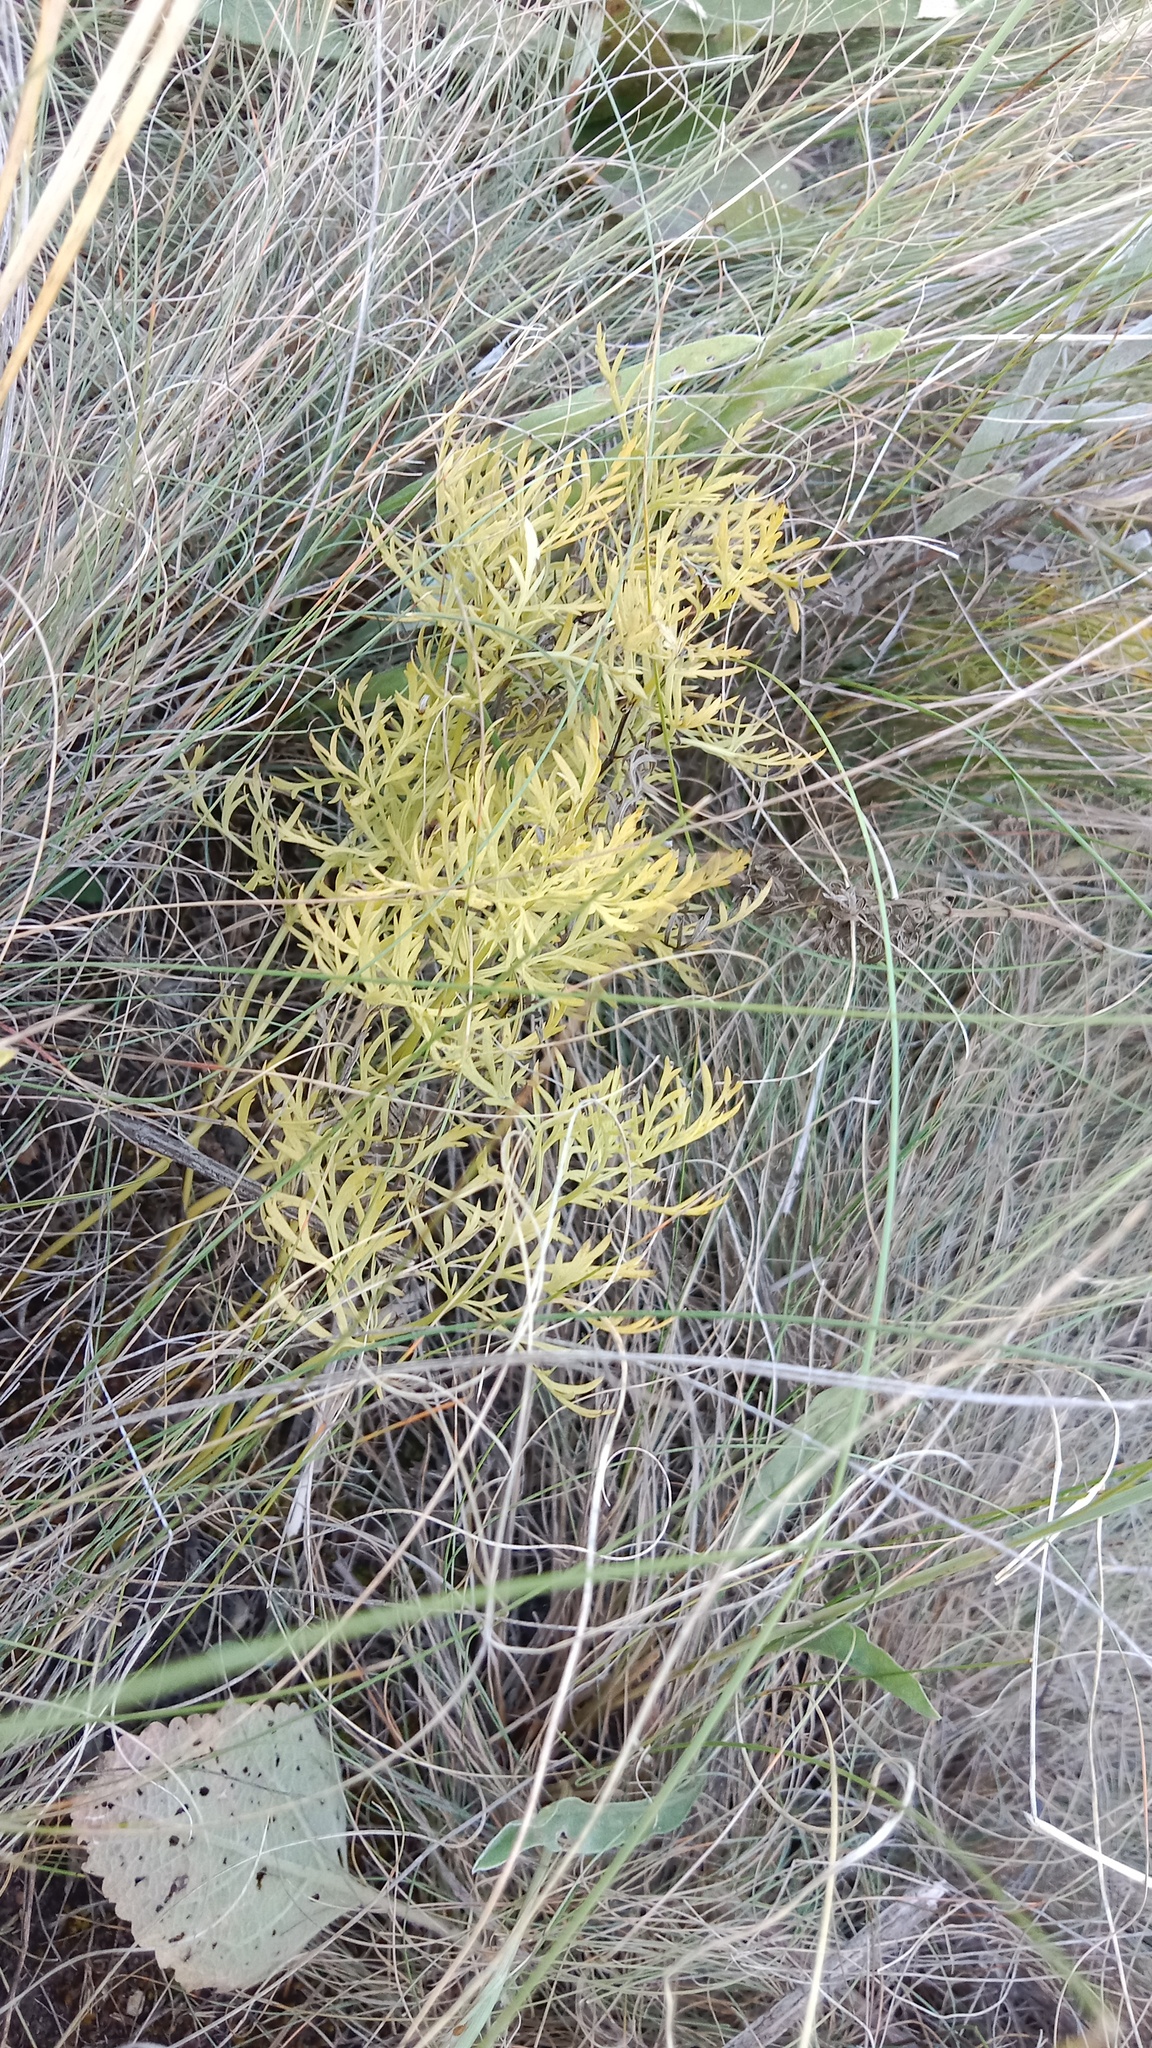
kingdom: Plantae
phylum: Tracheophyta
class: Magnoliopsida
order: Ranunculales
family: Ranunculaceae
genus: Adonis
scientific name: Adonis volgensis
